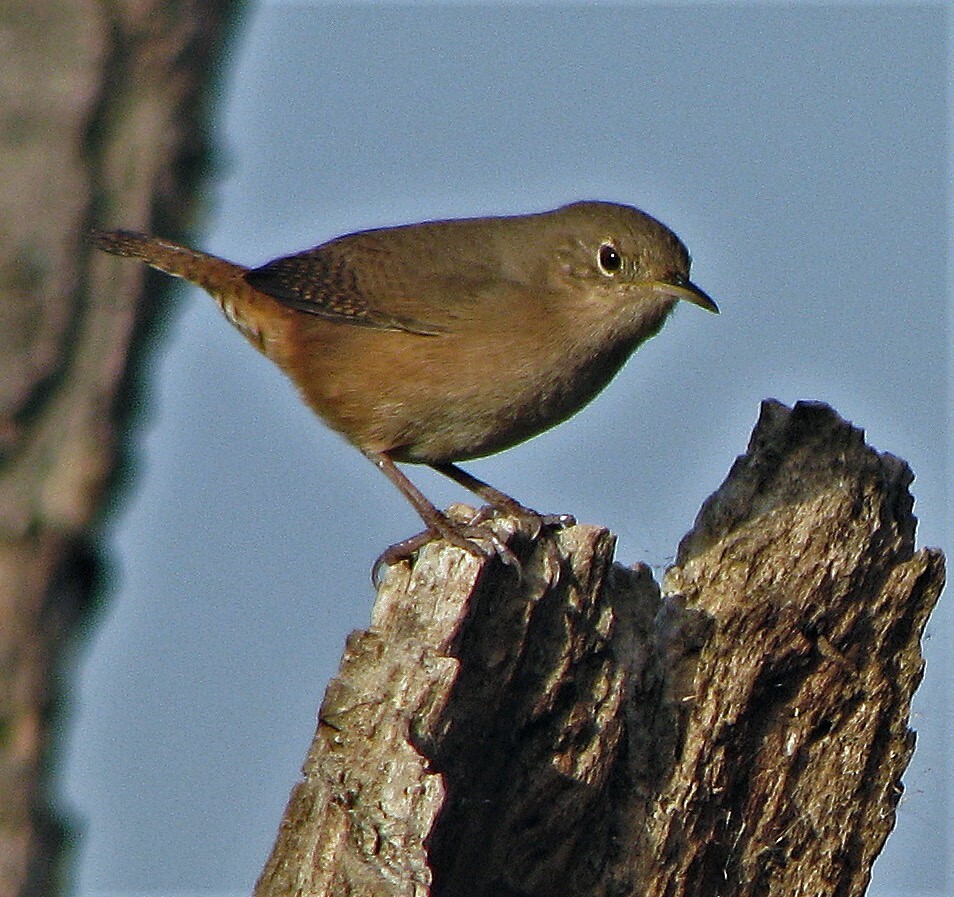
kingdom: Animalia
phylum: Chordata
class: Aves
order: Passeriformes
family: Troglodytidae
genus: Troglodytes
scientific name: Troglodytes aedon
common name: House wren
